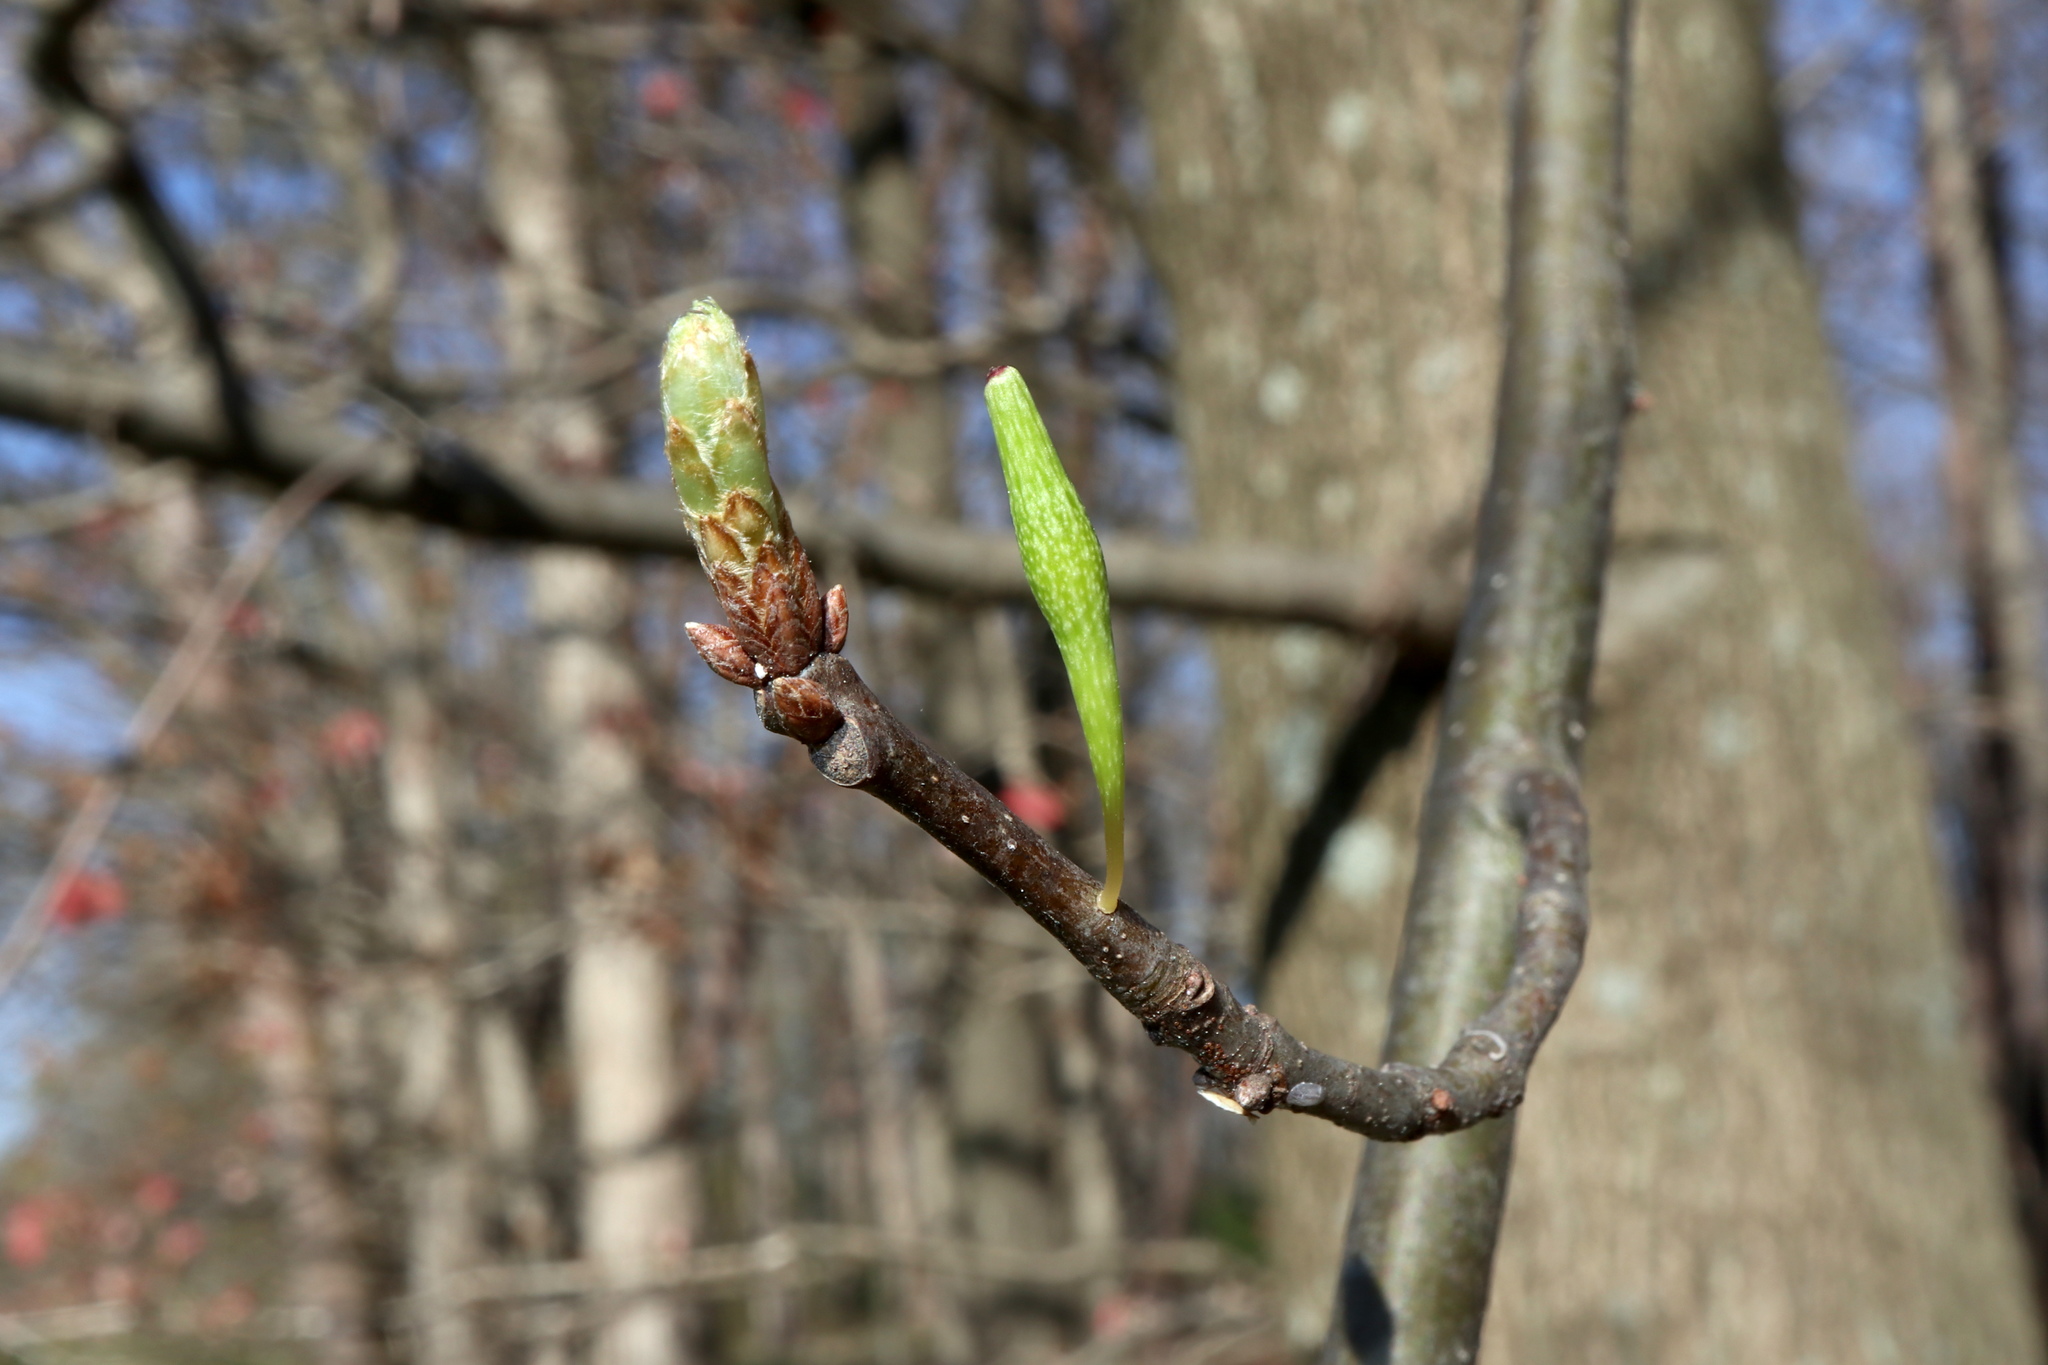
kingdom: Animalia
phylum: Arthropoda
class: Insecta
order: Hymenoptera
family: Cynipidae
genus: Callirhytis
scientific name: Callirhytis
